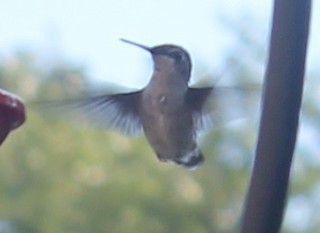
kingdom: Animalia
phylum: Chordata
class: Aves
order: Apodiformes
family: Trochilidae
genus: Archilochus
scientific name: Archilochus colubris
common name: Ruby-throated hummingbird
